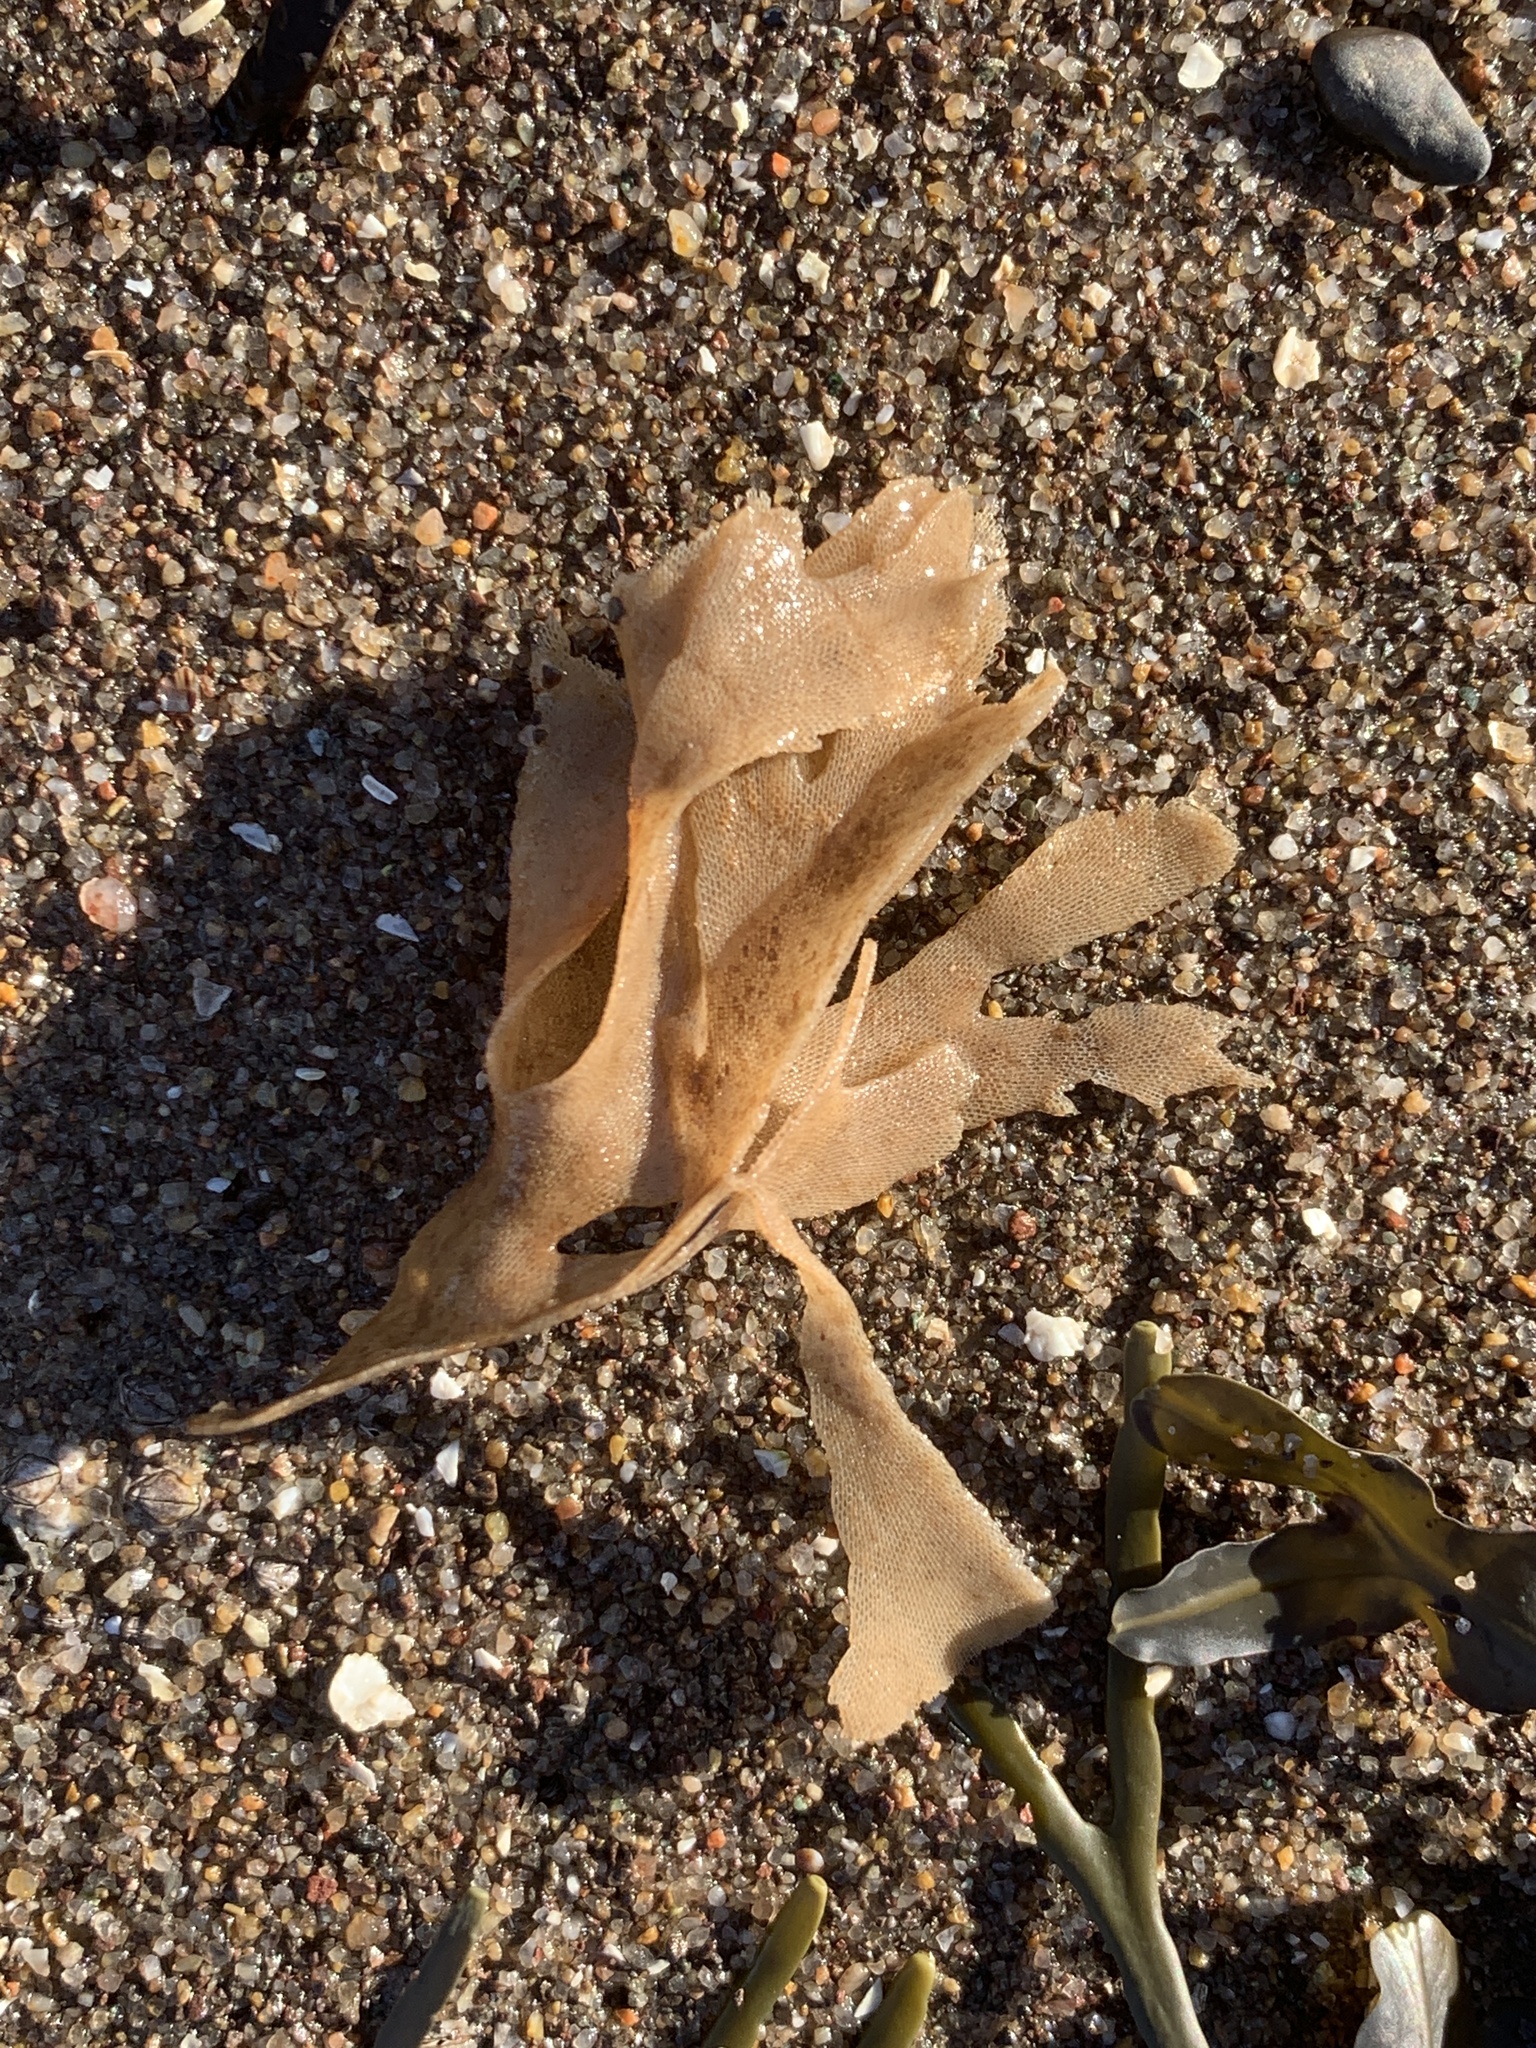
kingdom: Animalia
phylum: Bryozoa
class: Gymnolaemata
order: Cheilostomatida
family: Flustridae
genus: Flustra
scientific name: Flustra foliacea
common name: Hornwrack
